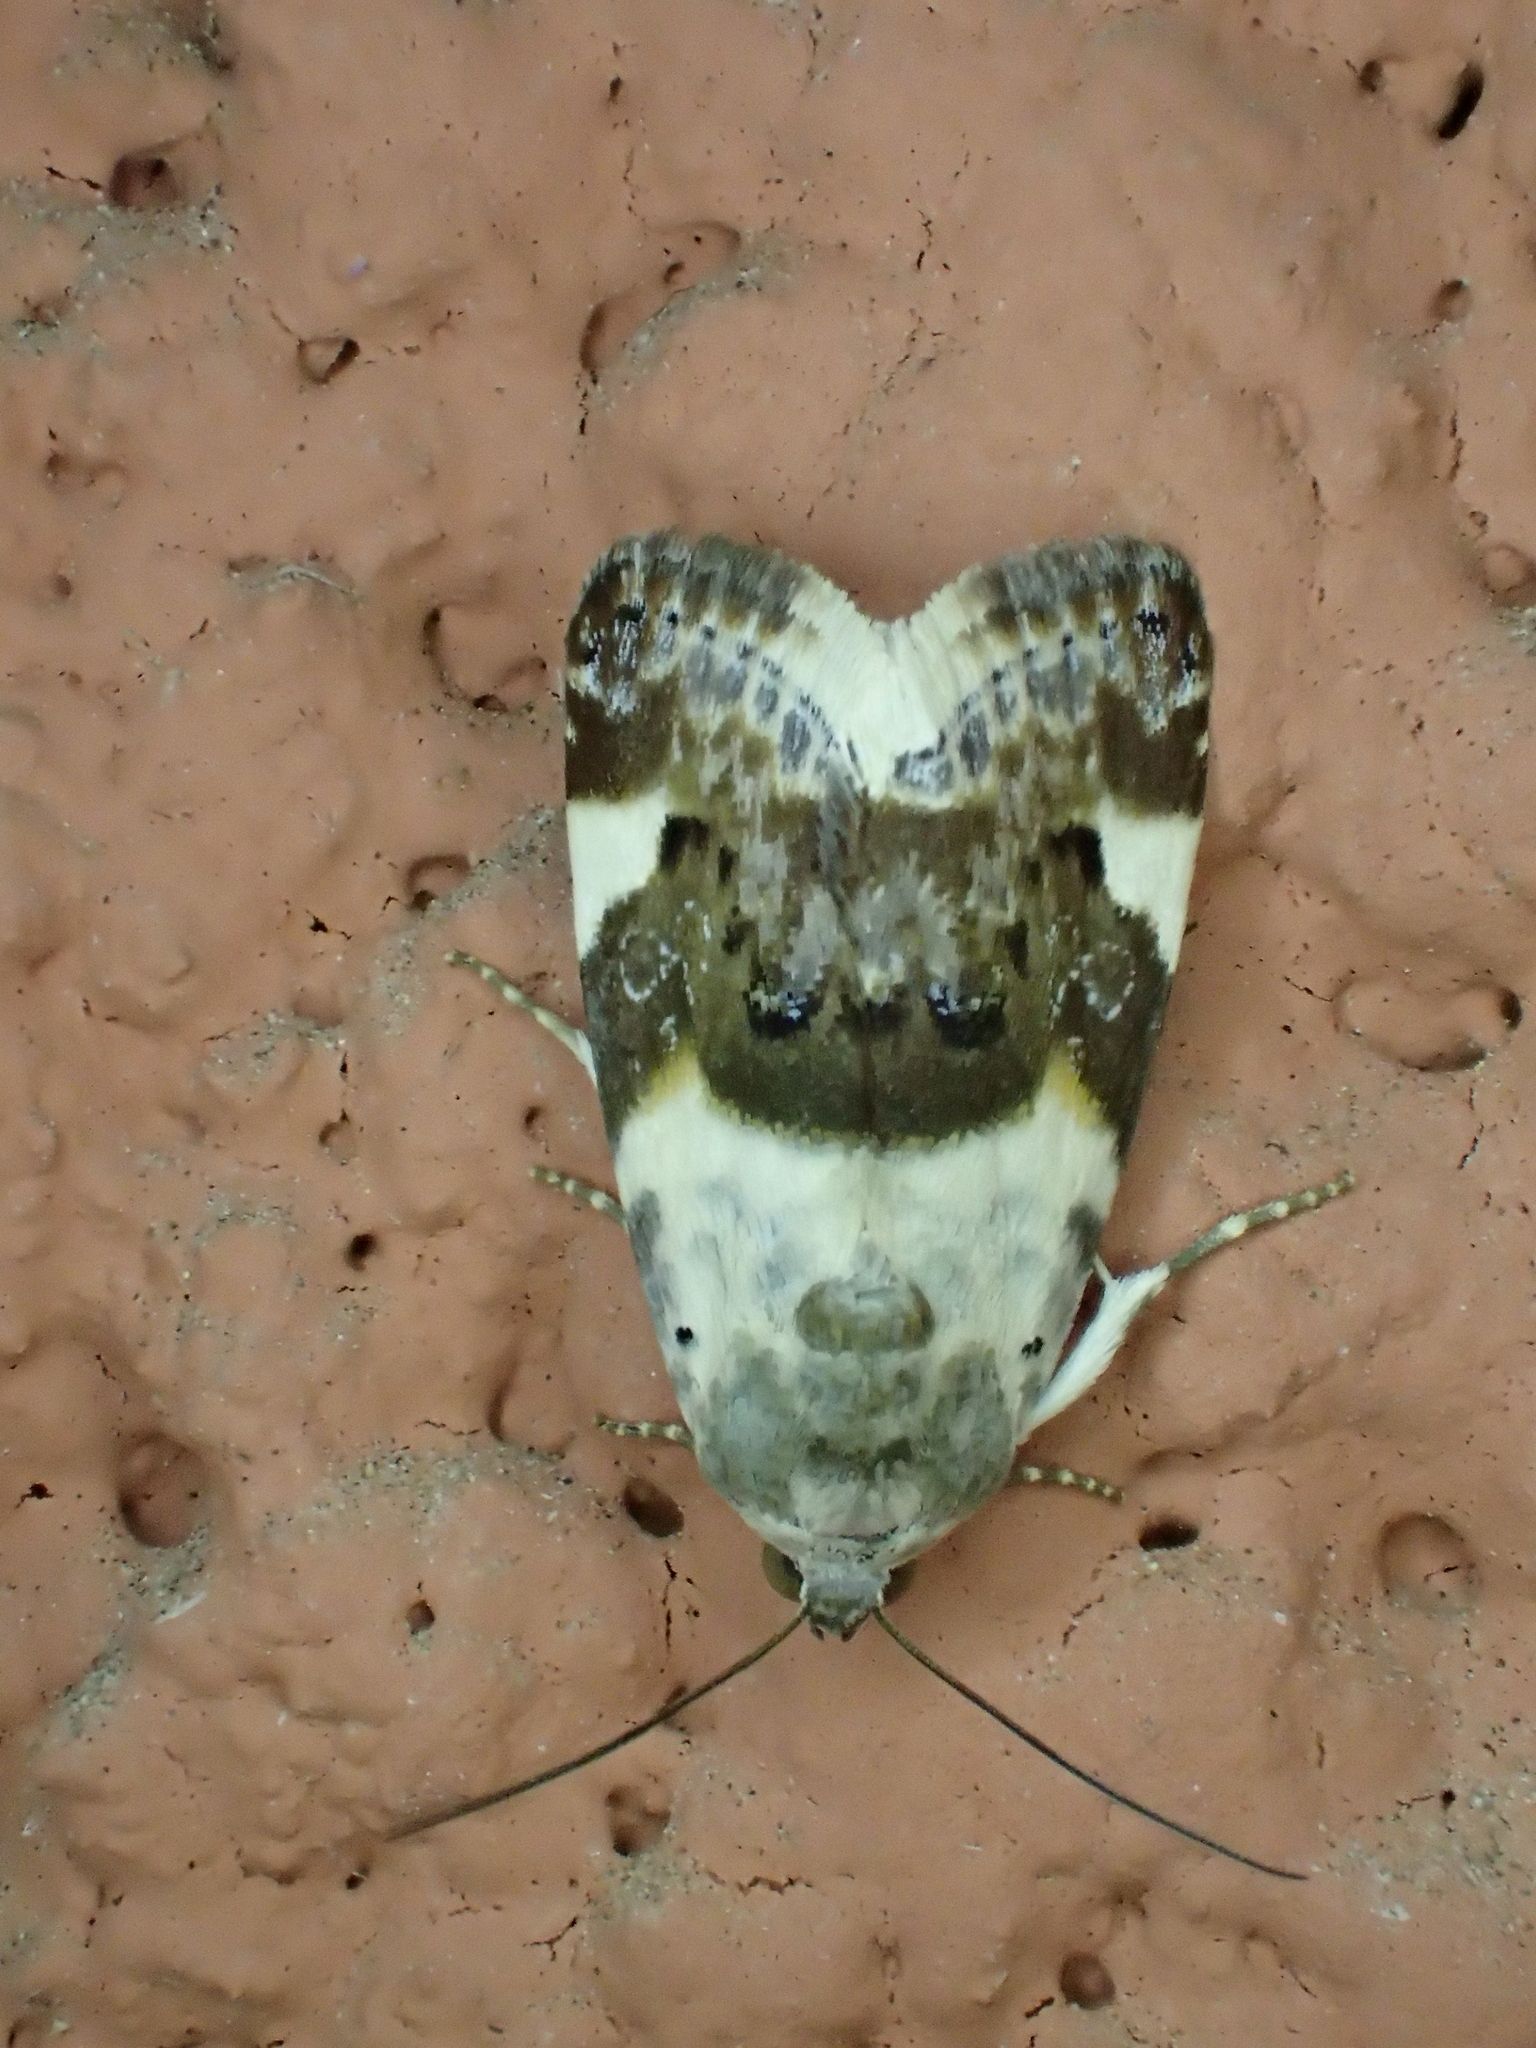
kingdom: Animalia
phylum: Arthropoda
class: Insecta
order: Lepidoptera
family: Noctuidae
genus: Acontia
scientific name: Acontia lucida
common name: Pale shoulder
